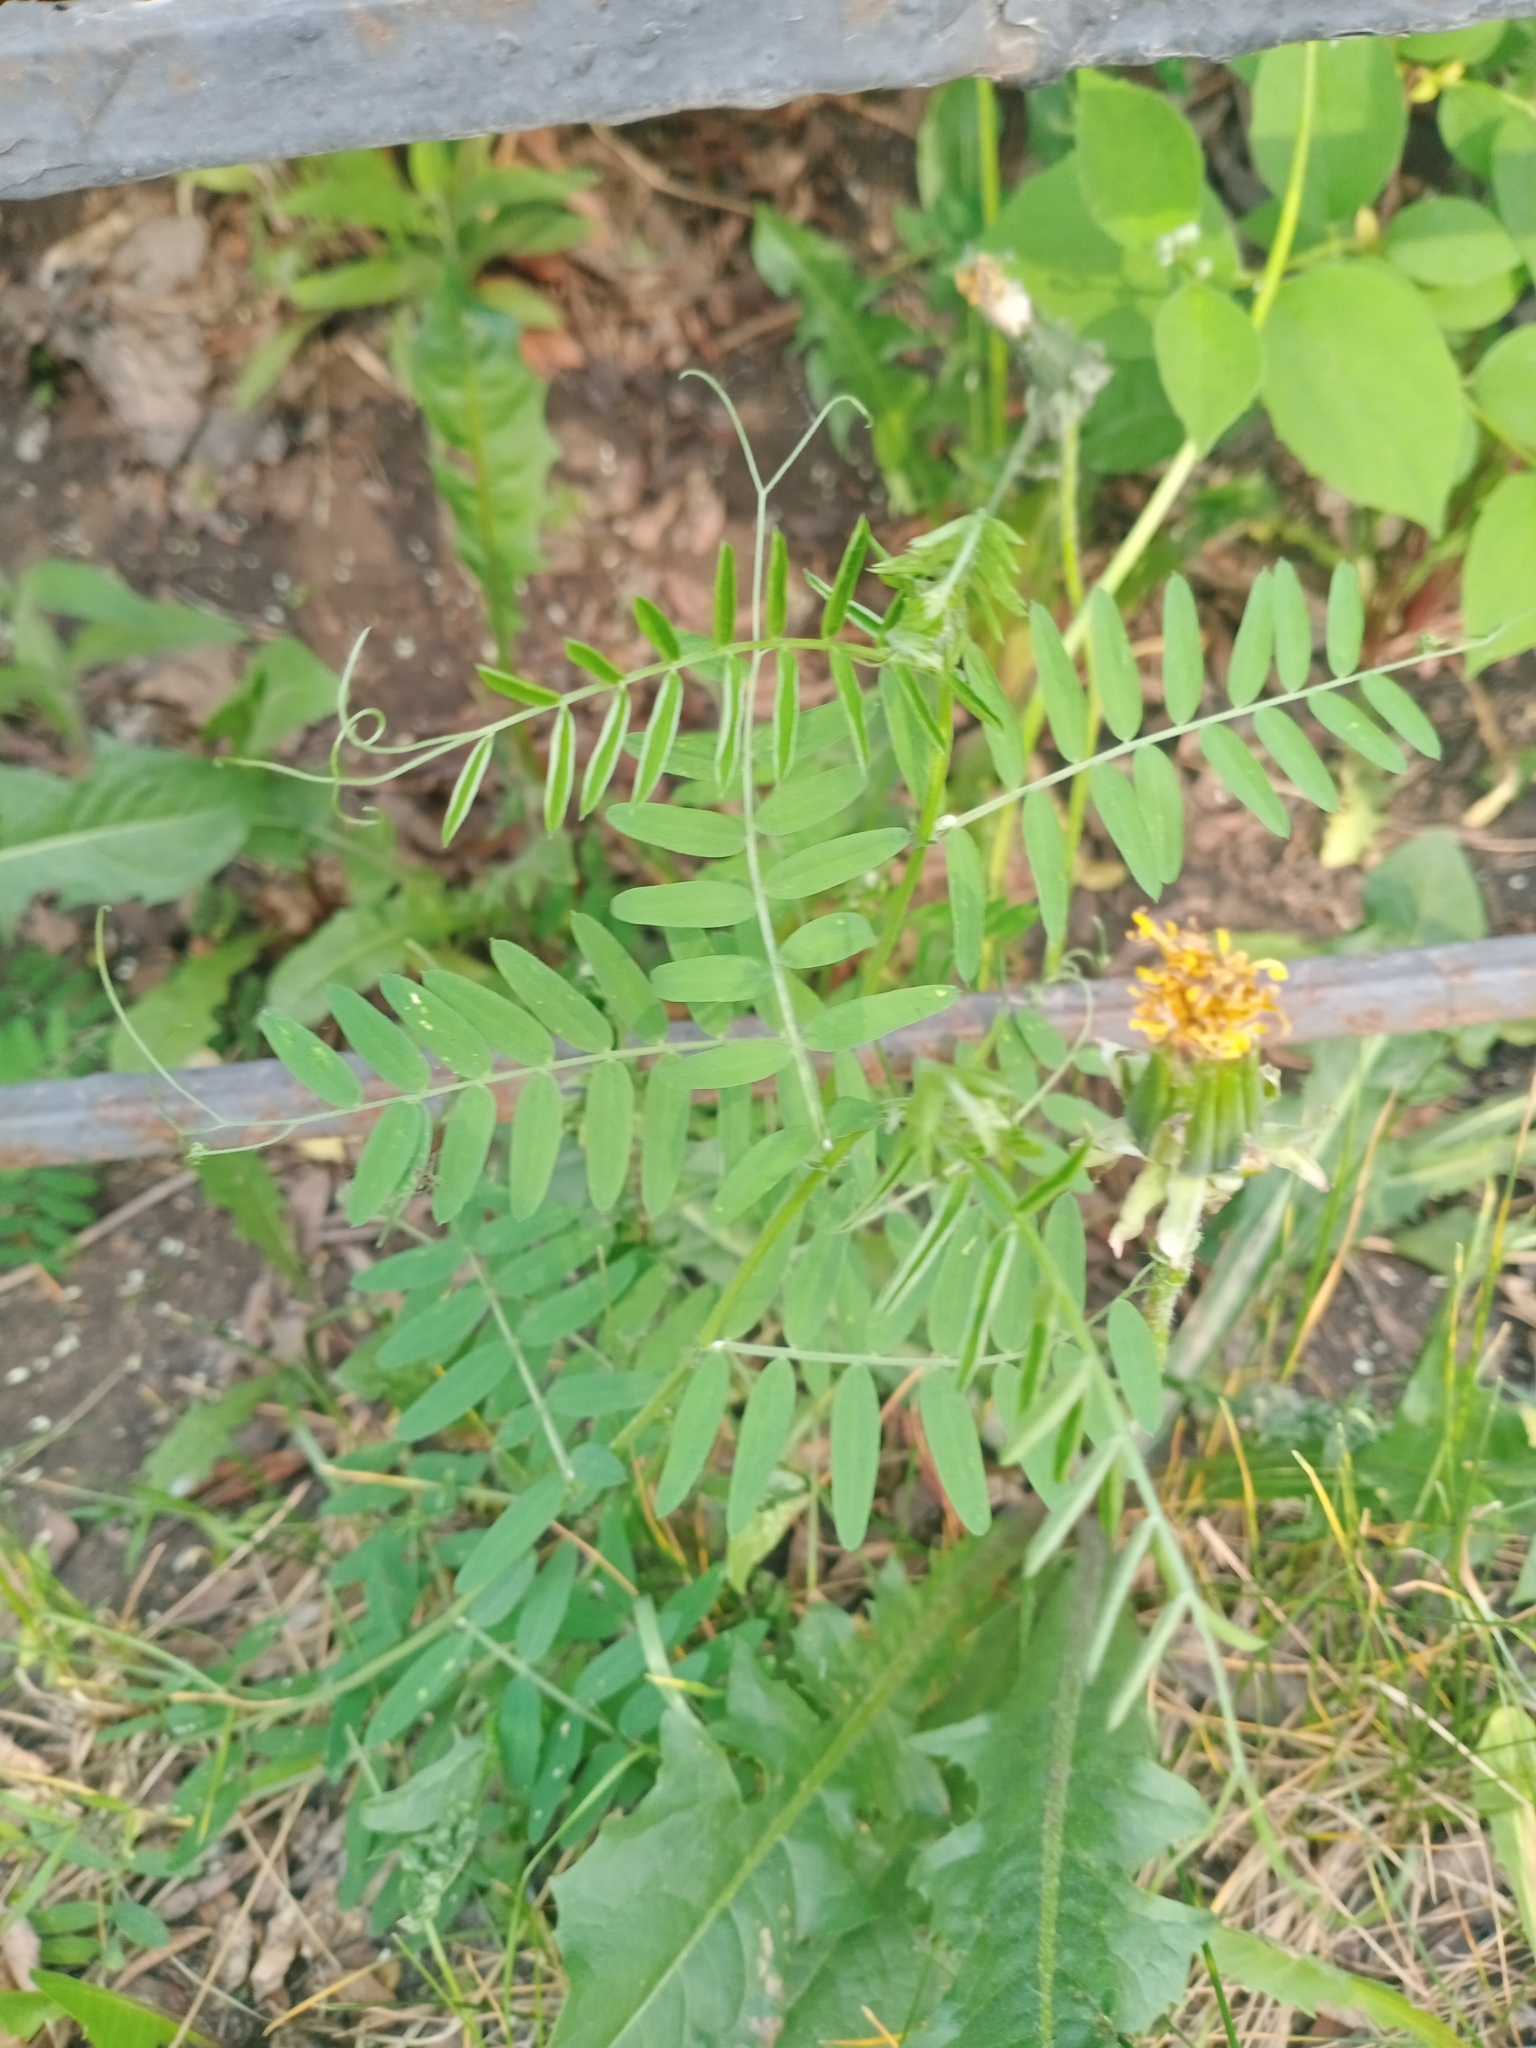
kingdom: Plantae
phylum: Tracheophyta
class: Magnoliopsida
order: Fabales
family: Fabaceae
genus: Vicia
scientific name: Vicia cracca
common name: Bird vetch
